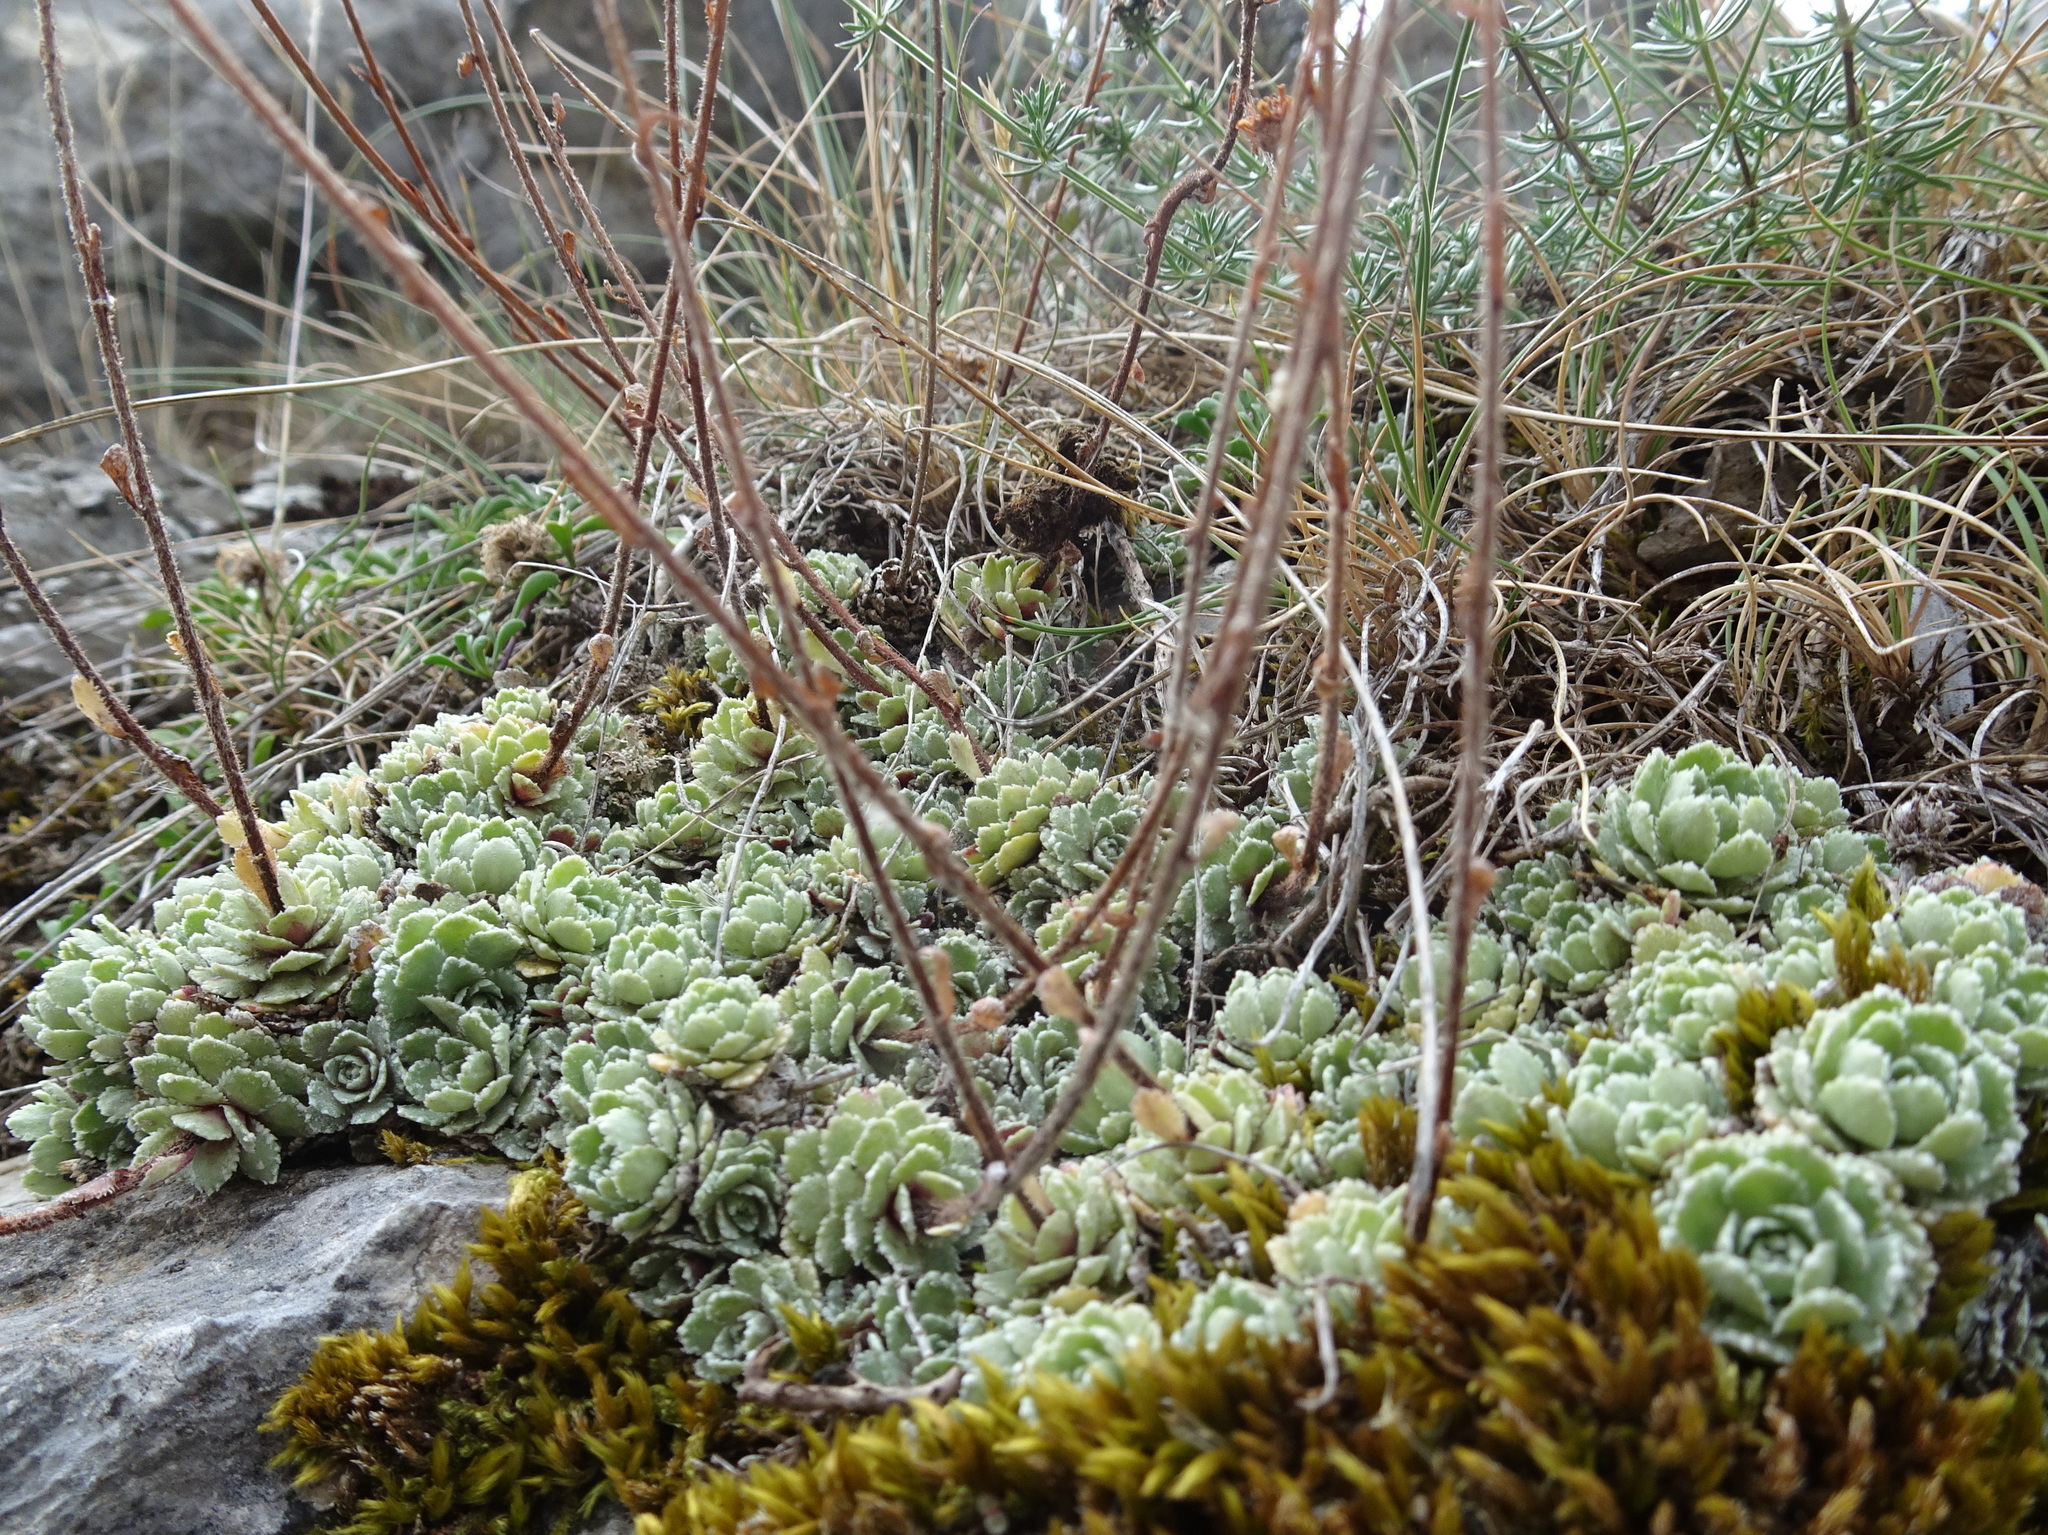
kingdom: Plantae
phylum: Tracheophyta
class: Magnoliopsida
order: Saxifragales
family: Saxifragaceae
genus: Saxifraga
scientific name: Saxifraga paniculata
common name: Livelong saxifrage
